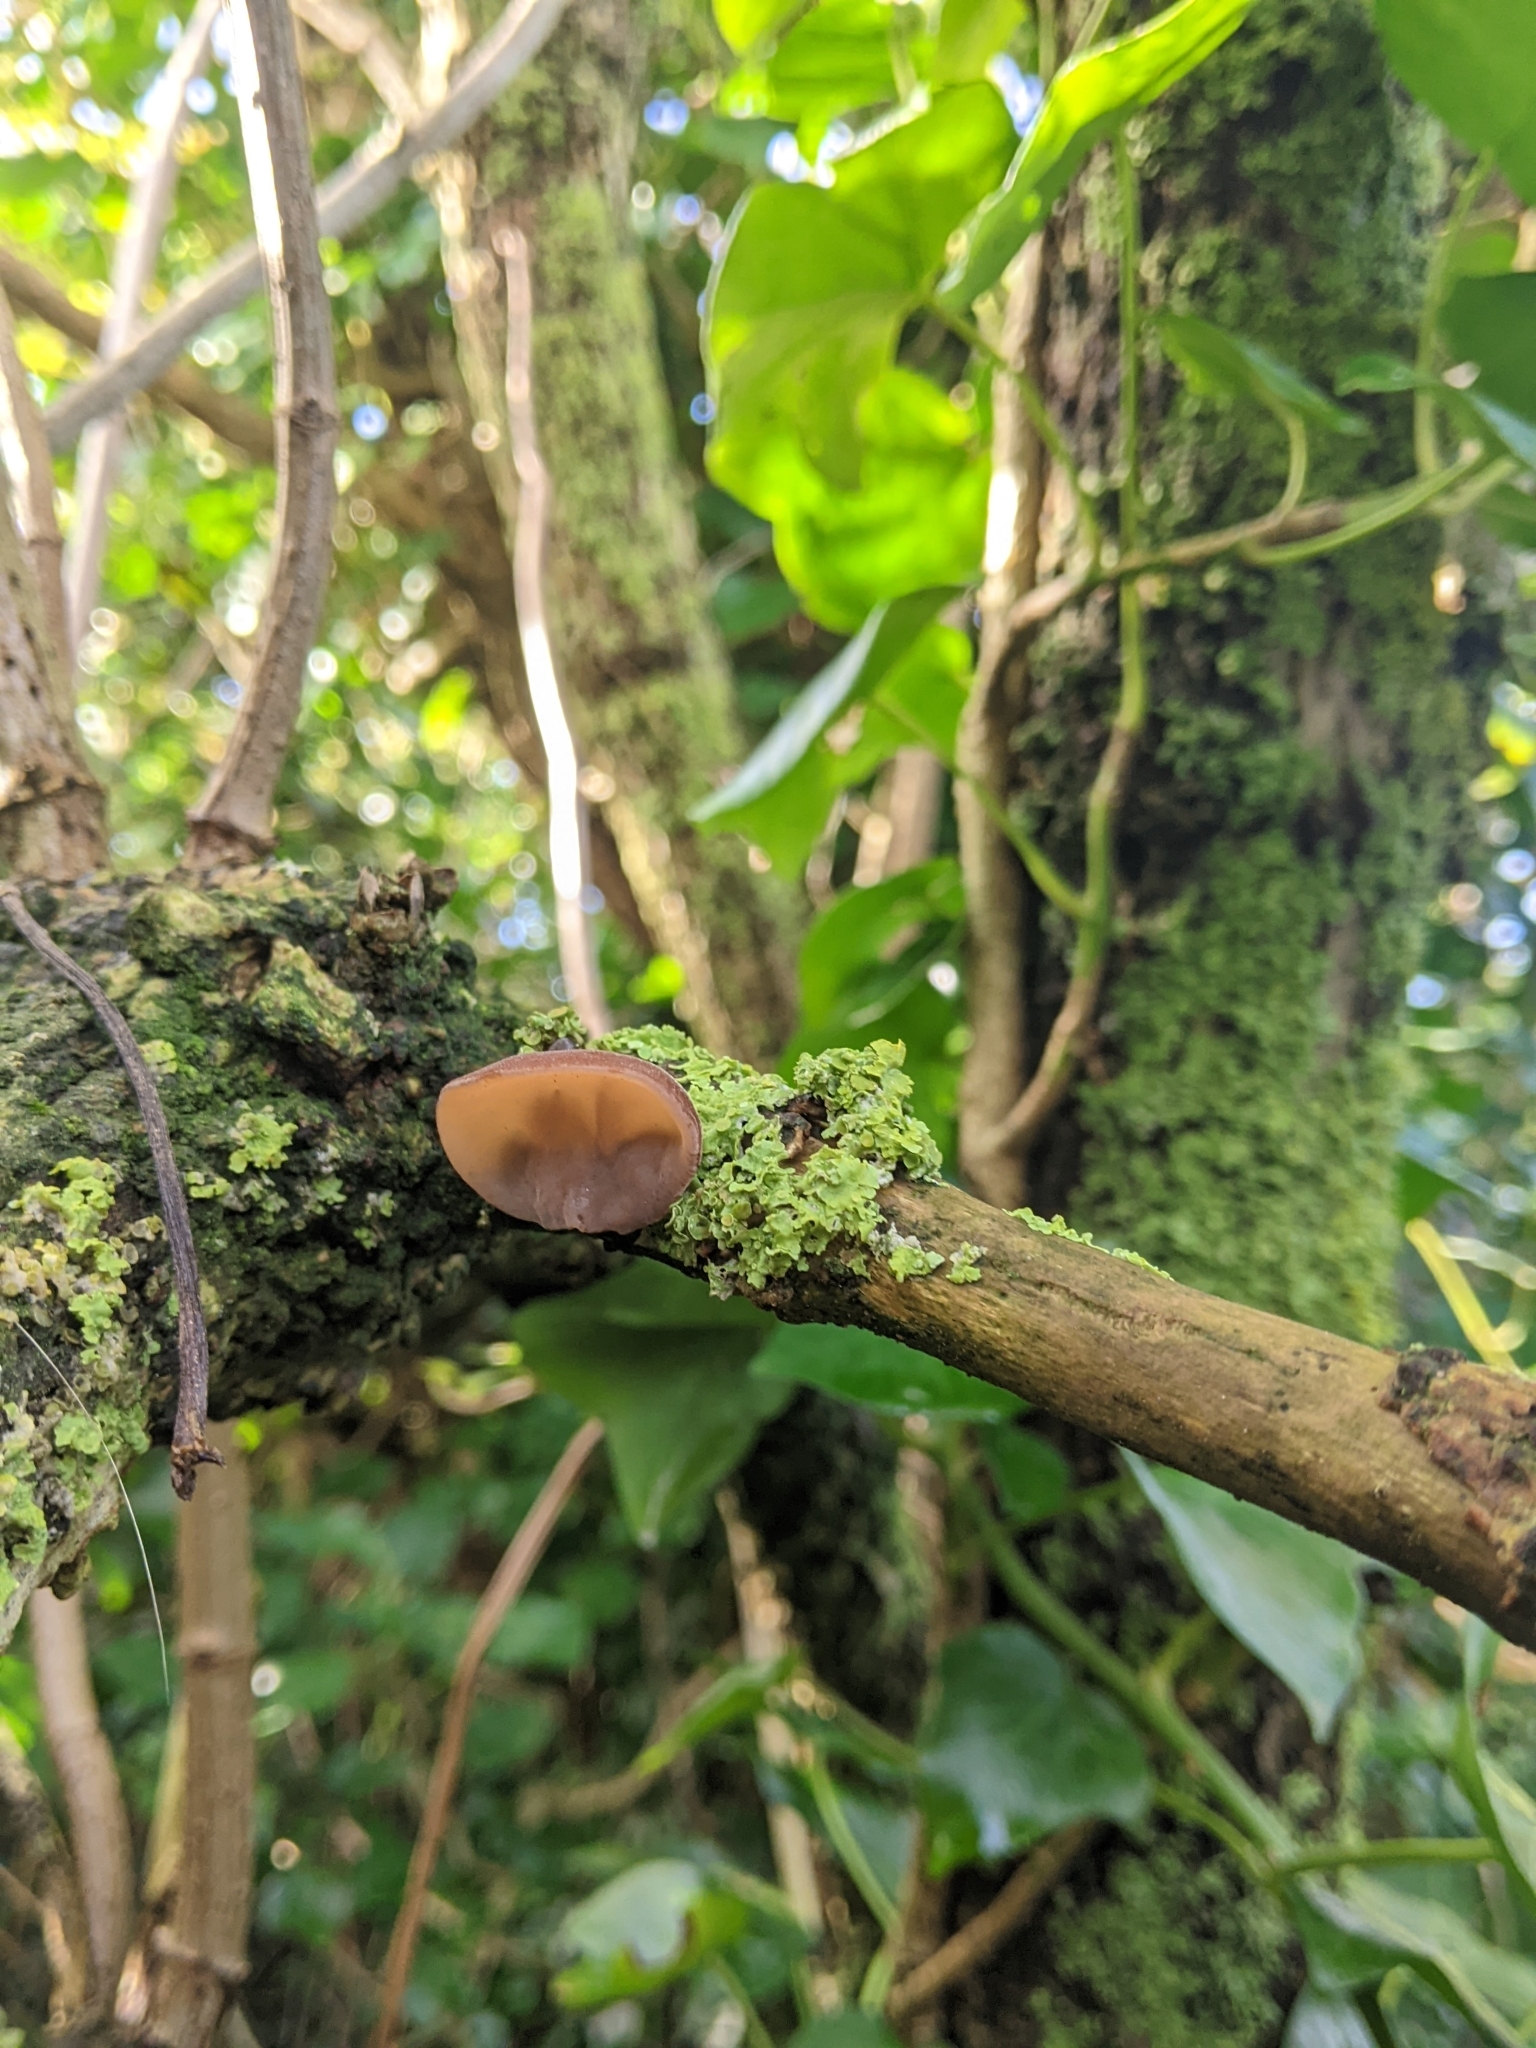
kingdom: Fungi
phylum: Basidiomycota
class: Agaricomycetes
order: Auriculariales
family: Auriculariaceae
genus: Auricularia
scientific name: Auricularia auricula-judae
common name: Jelly ear
